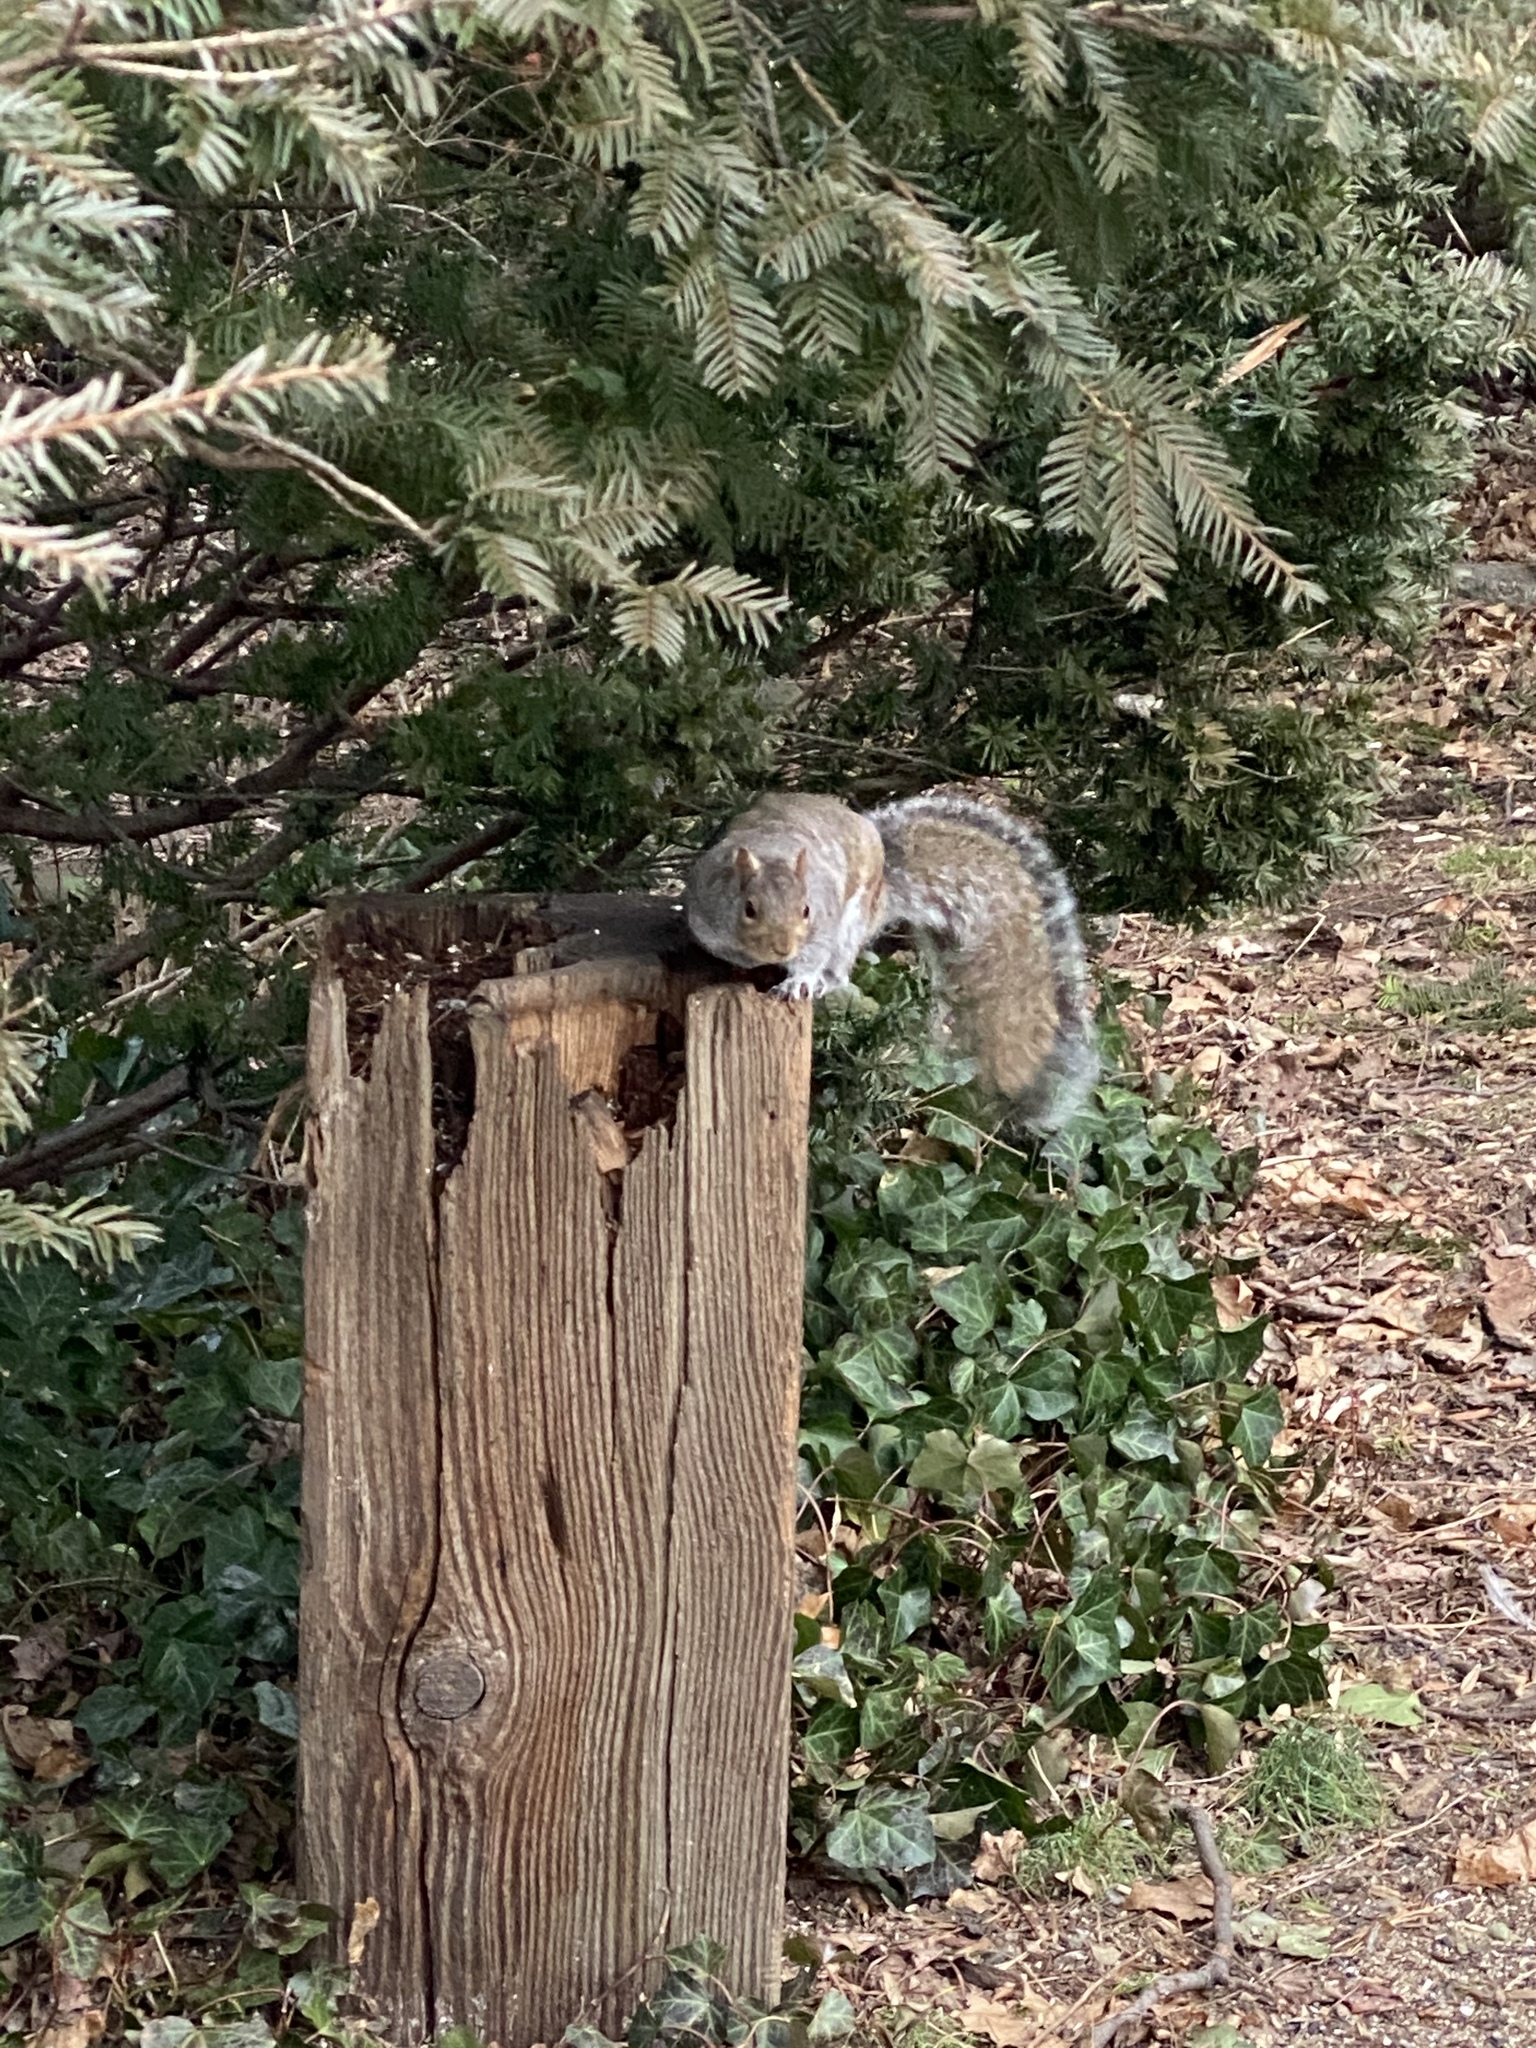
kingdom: Animalia
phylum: Chordata
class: Mammalia
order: Rodentia
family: Sciuridae
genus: Sciurus
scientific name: Sciurus carolinensis
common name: Eastern gray squirrel
